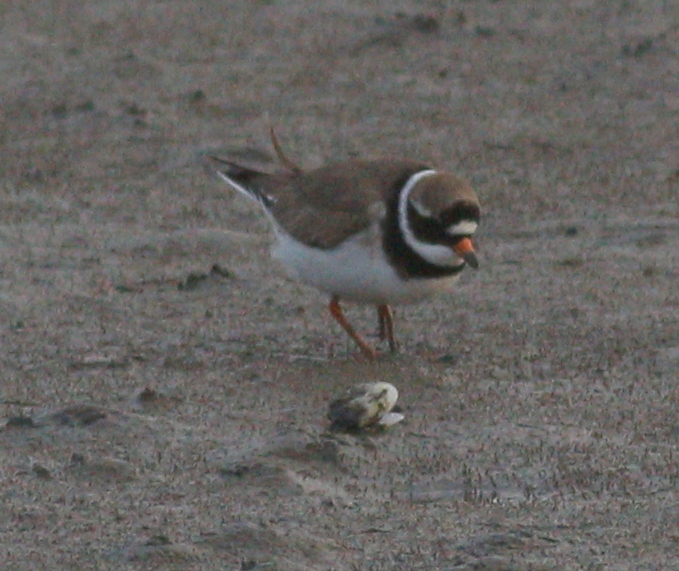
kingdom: Animalia
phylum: Chordata
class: Aves
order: Charadriiformes
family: Charadriidae
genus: Charadrius
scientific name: Charadrius hiaticula
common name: Common ringed plover
